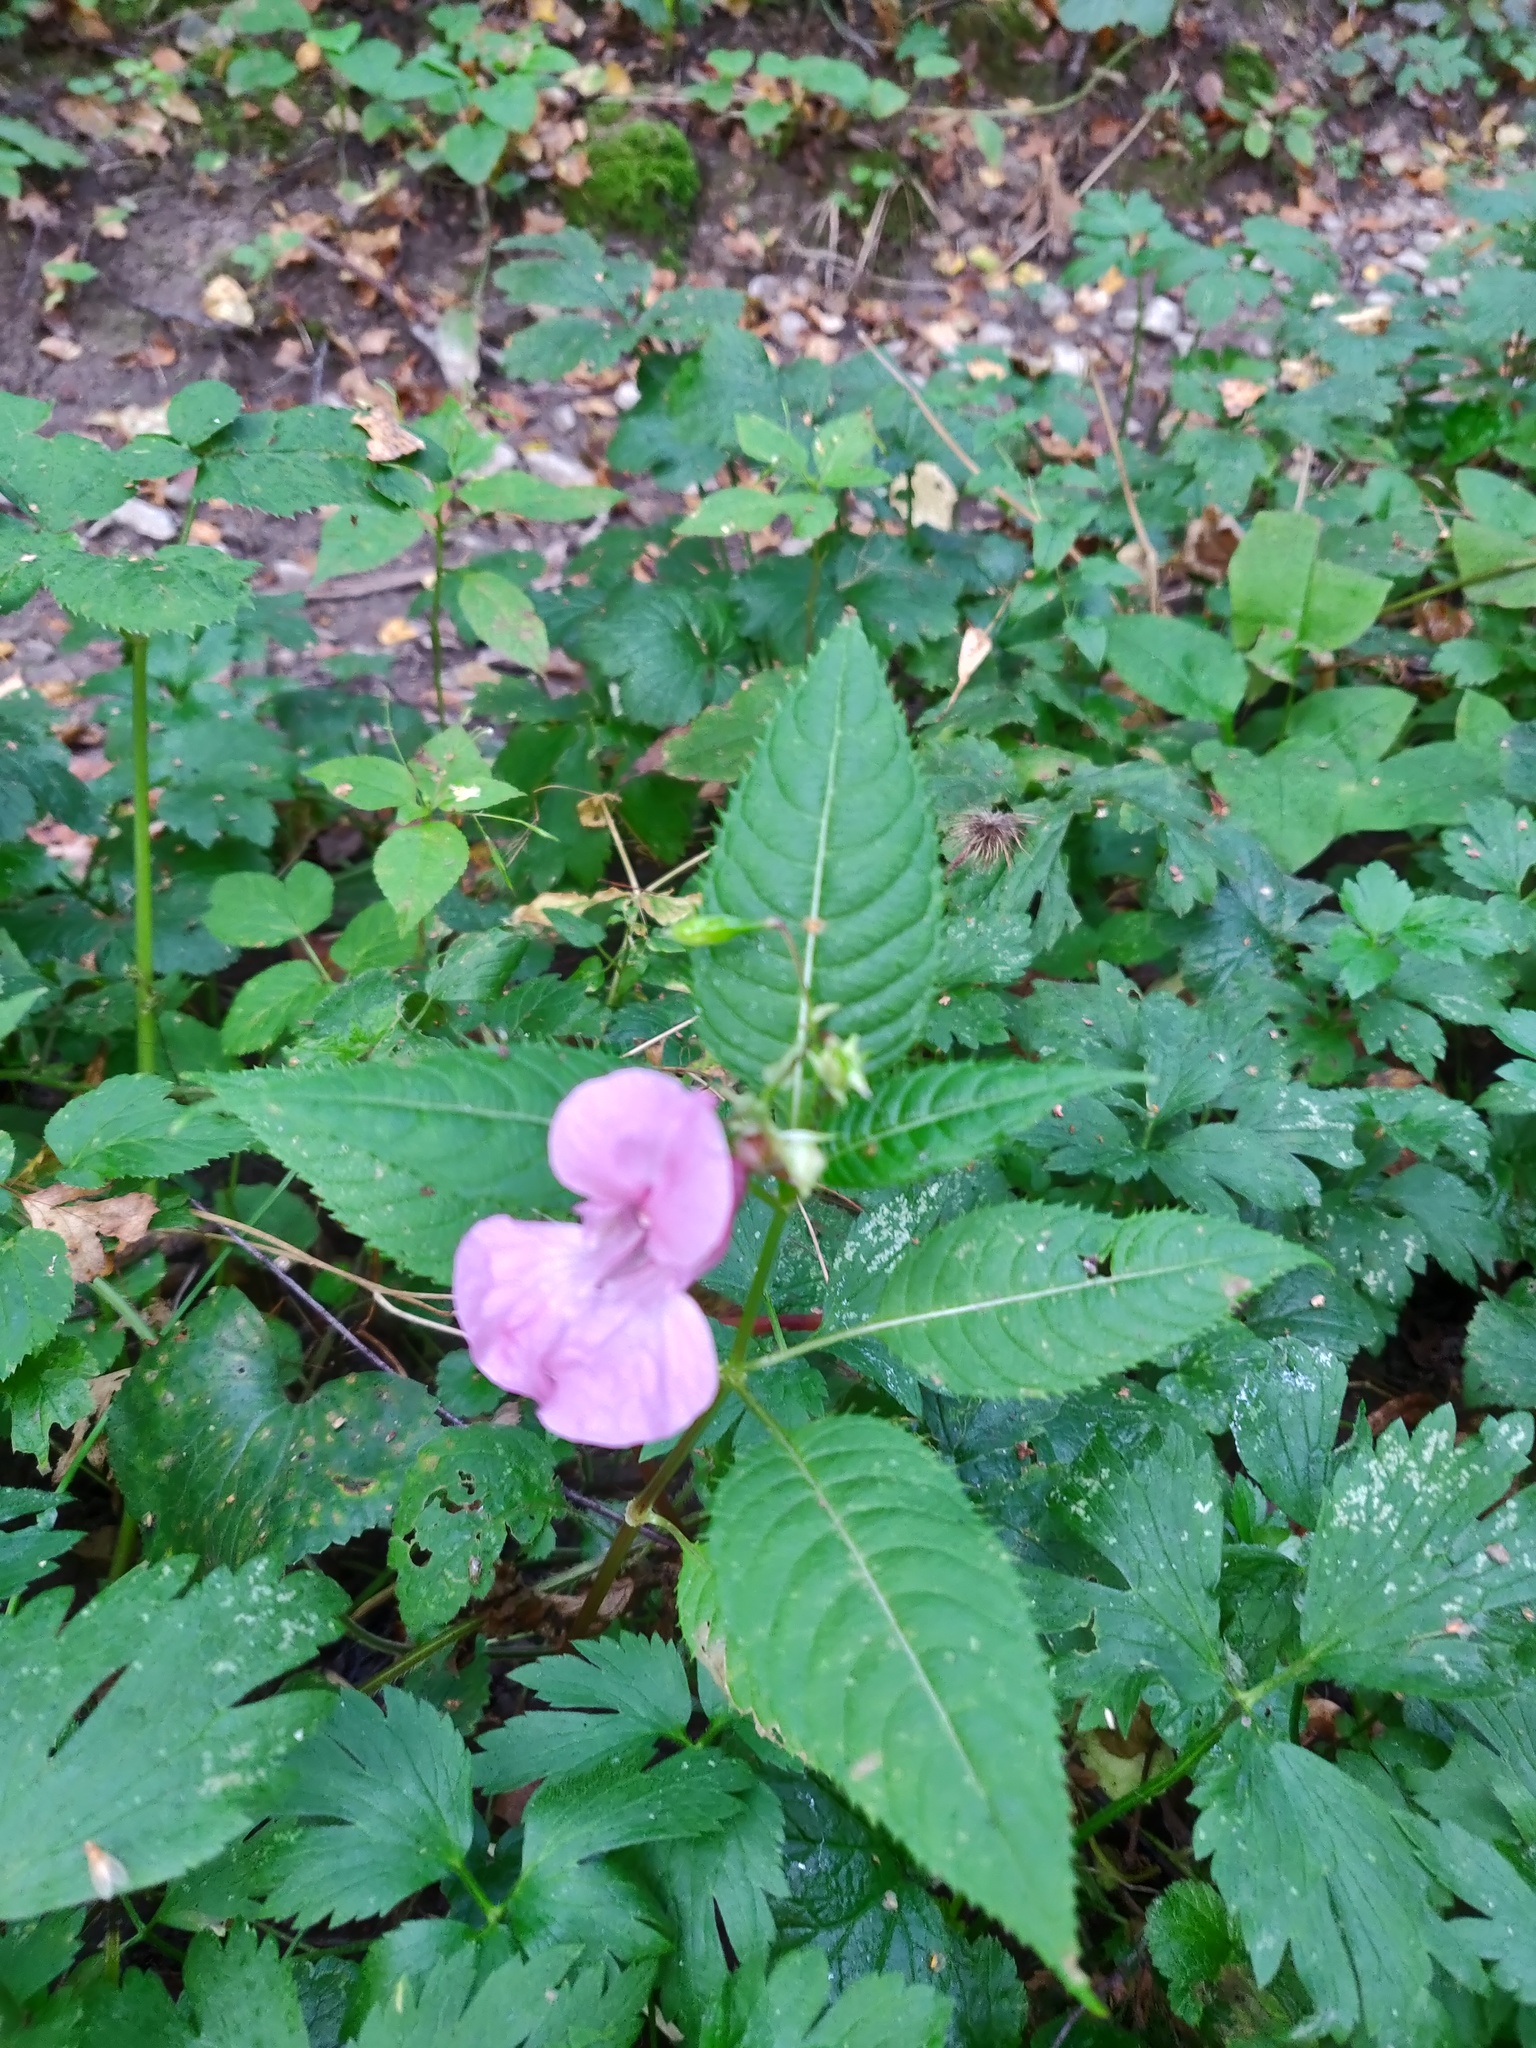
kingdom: Plantae
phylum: Tracheophyta
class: Magnoliopsida
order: Ericales
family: Balsaminaceae
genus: Impatiens
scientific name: Impatiens glandulifera
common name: Himalayan balsam
